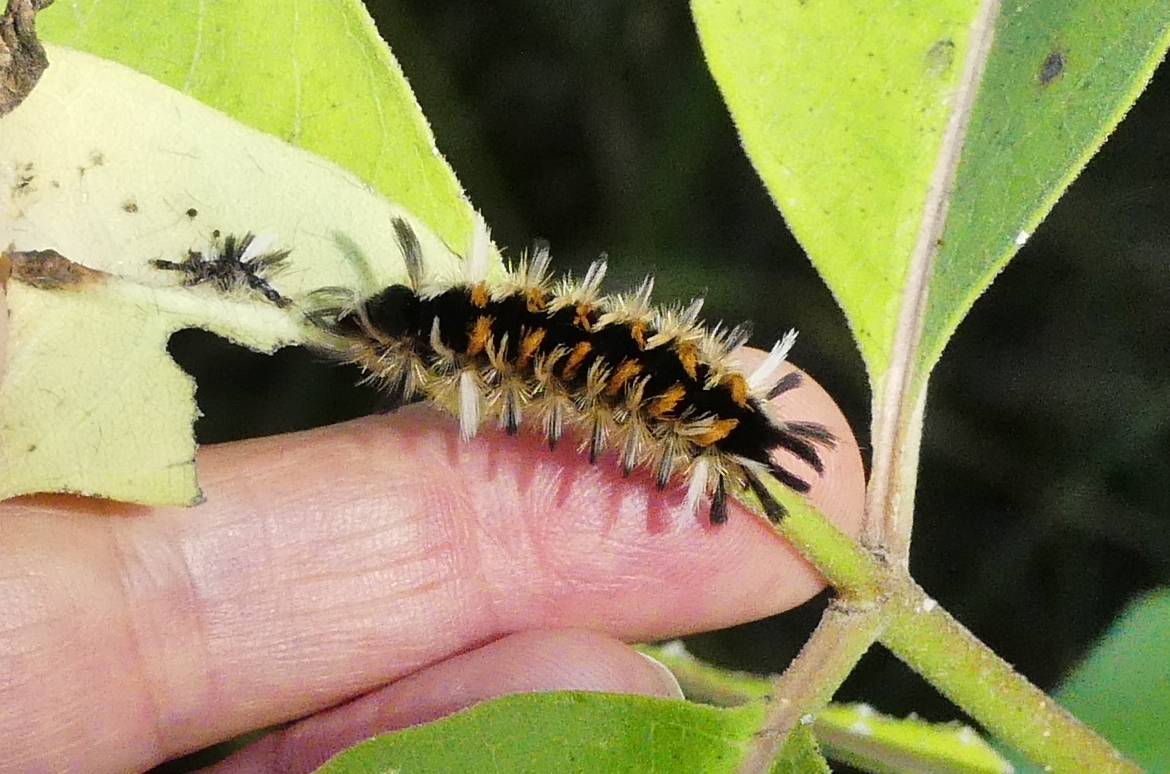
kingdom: Animalia
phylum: Arthropoda
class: Insecta
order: Lepidoptera
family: Erebidae
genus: Euchaetes
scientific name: Euchaetes egle
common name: Milkweed tussock moth
